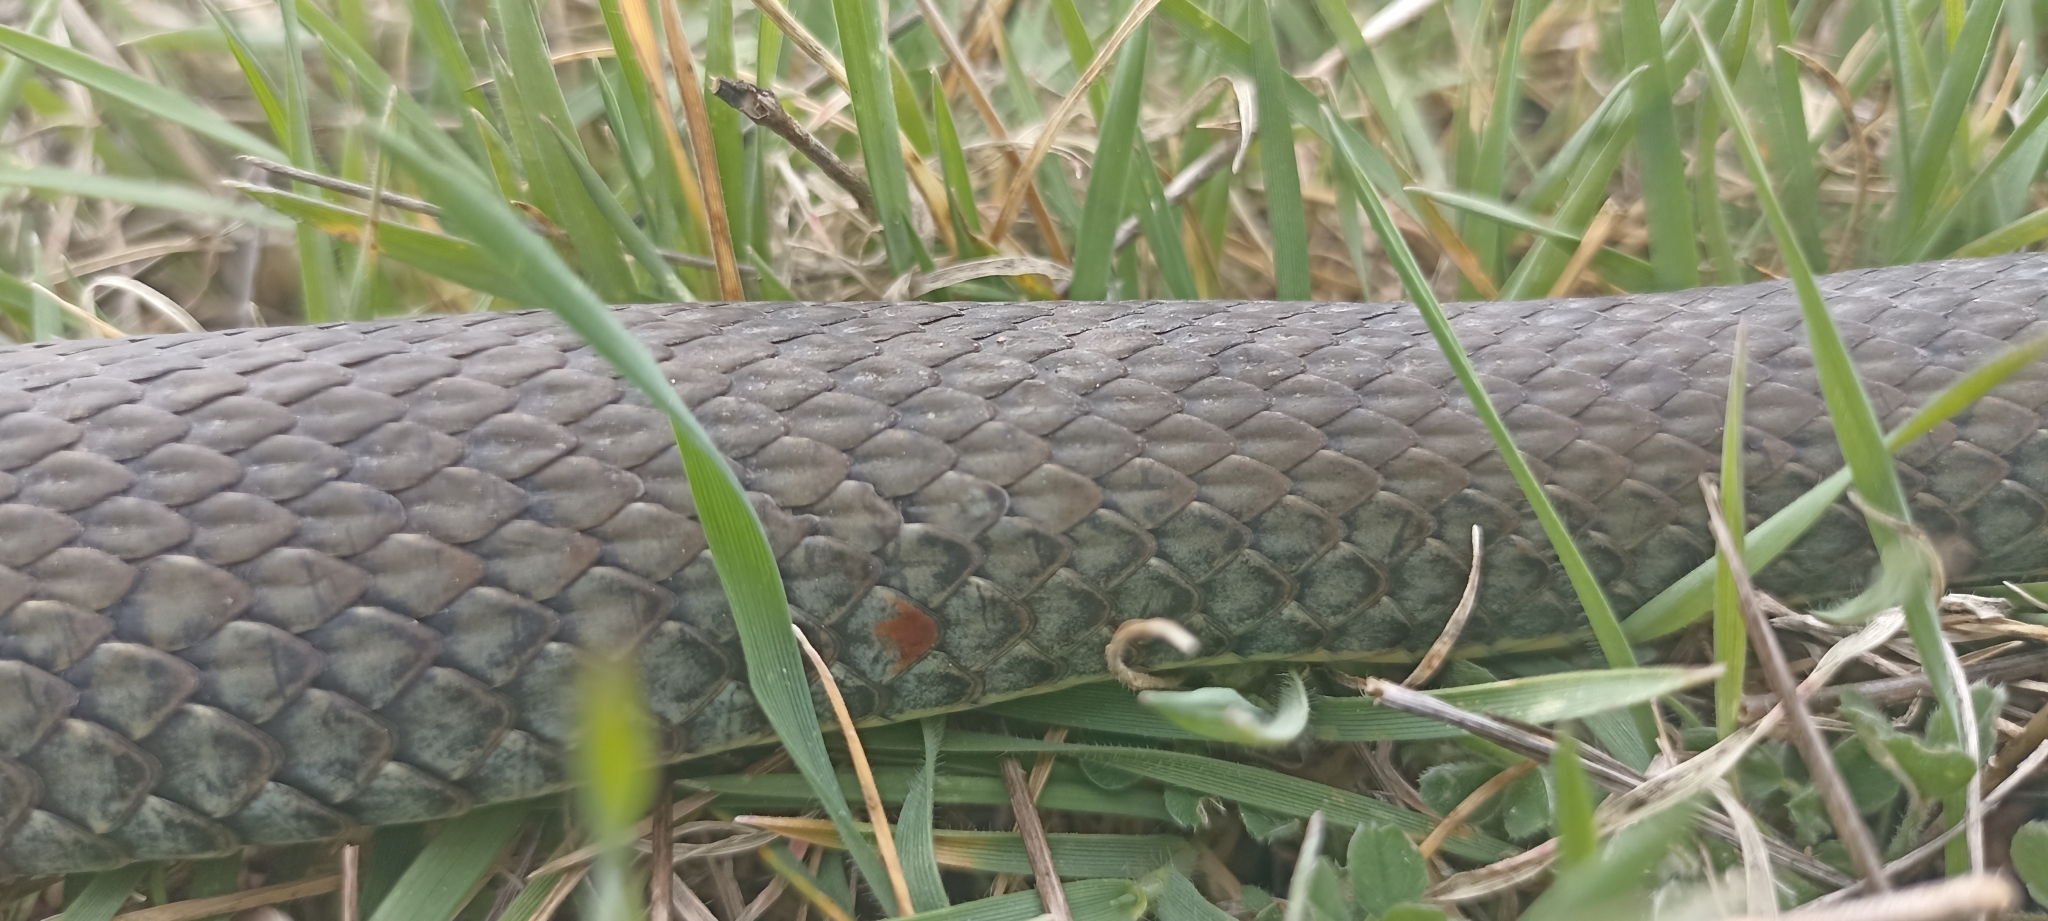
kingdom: Animalia
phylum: Chordata
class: Squamata
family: Psammophiidae
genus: Malpolon
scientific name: Malpolon monspessulanus
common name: Montpellier snake
